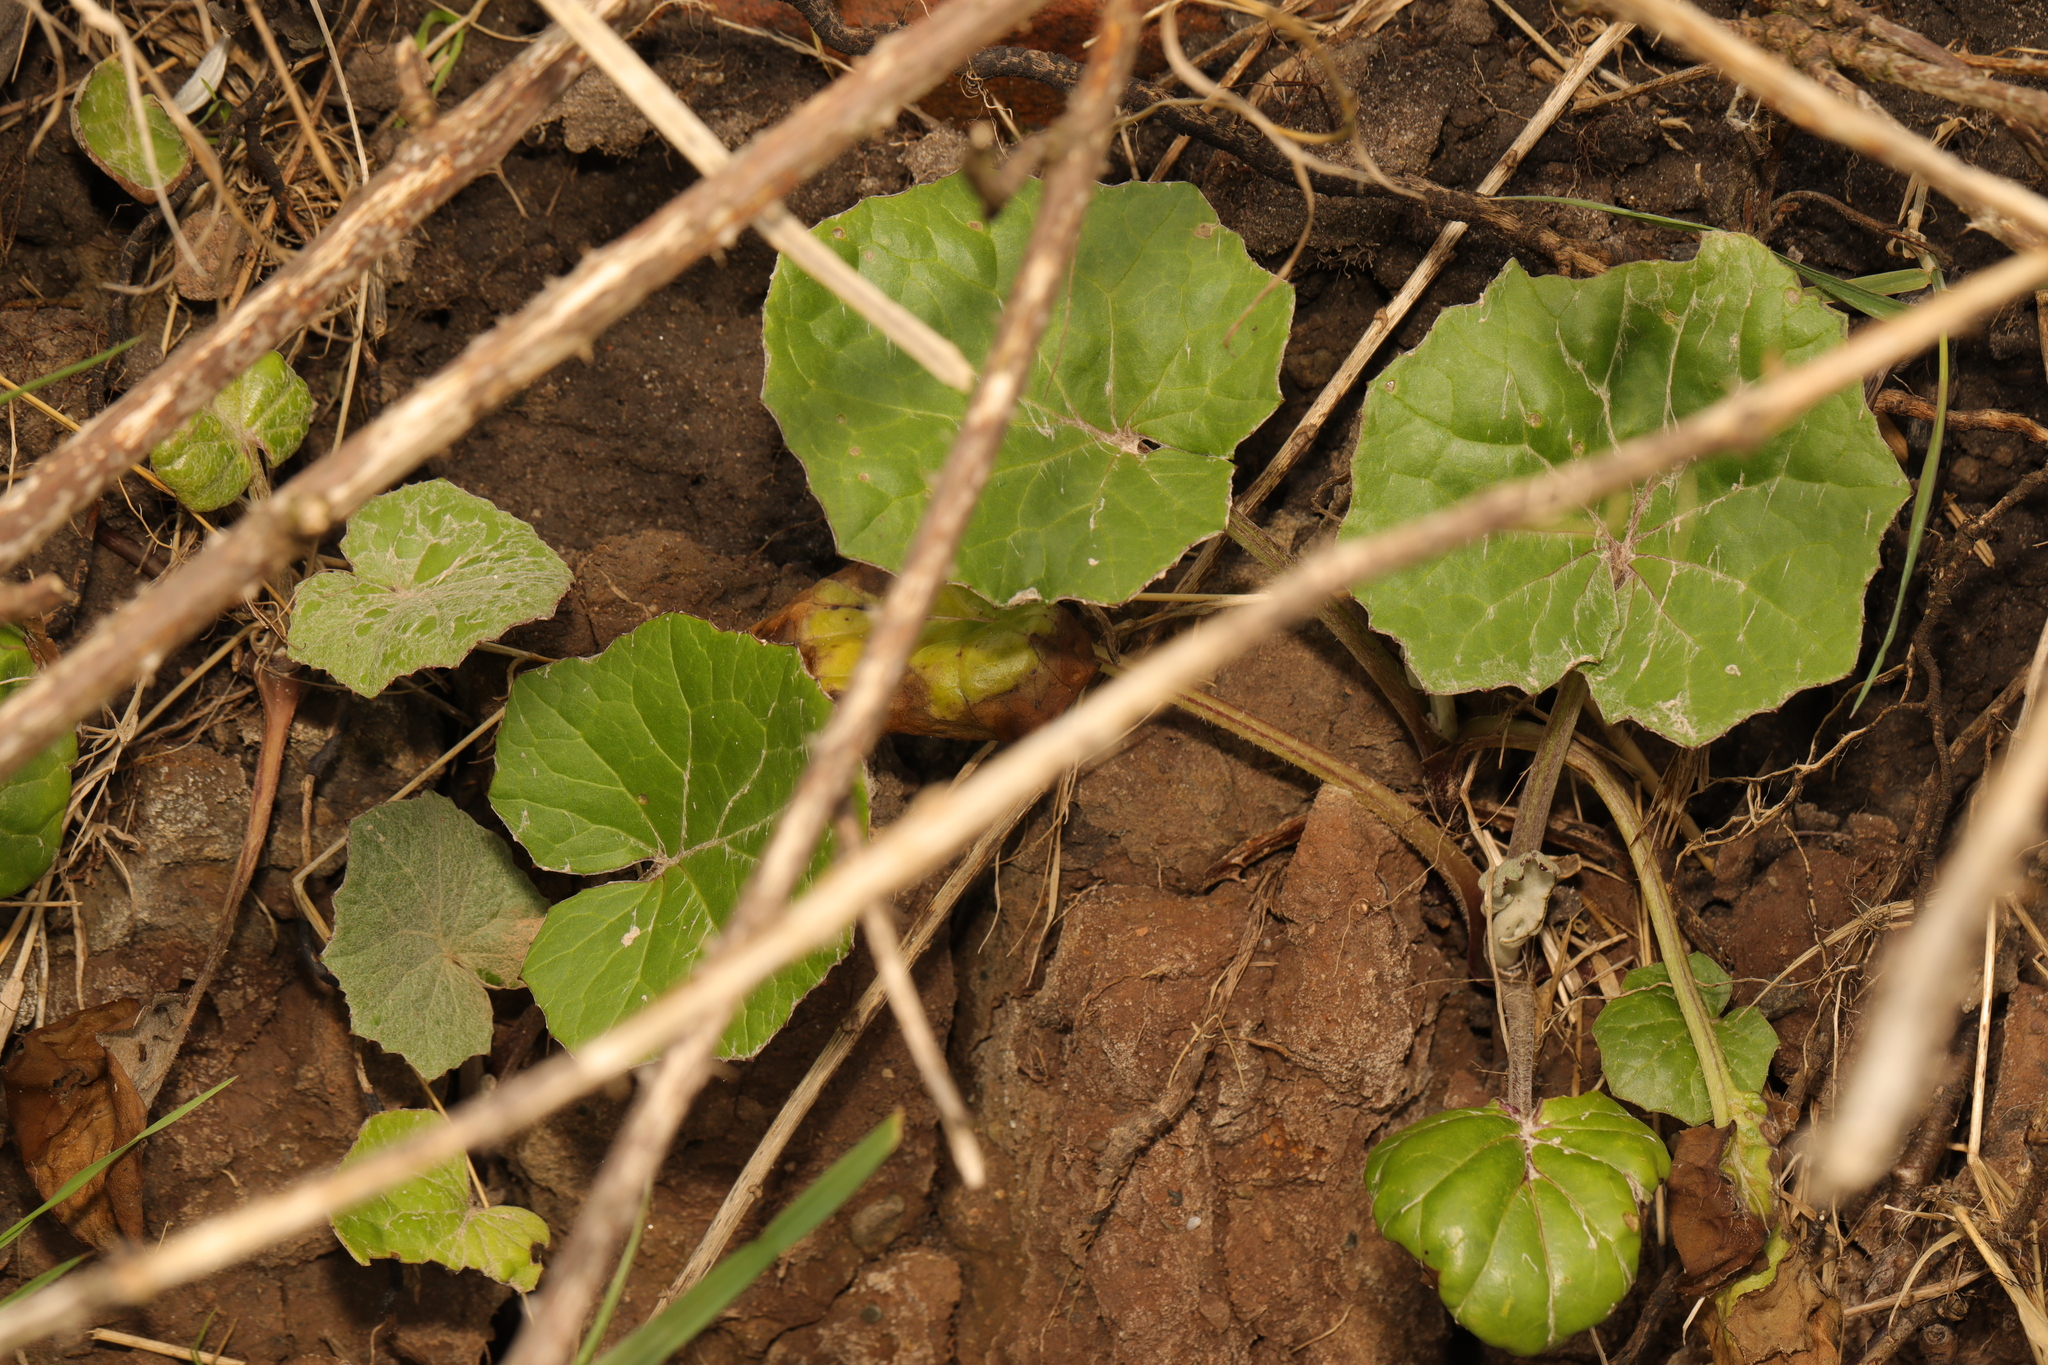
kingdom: Plantae
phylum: Tracheophyta
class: Magnoliopsida
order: Asterales
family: Asteraceae
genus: Tussilago
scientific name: Tussilago farfara
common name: Coltsfoot
